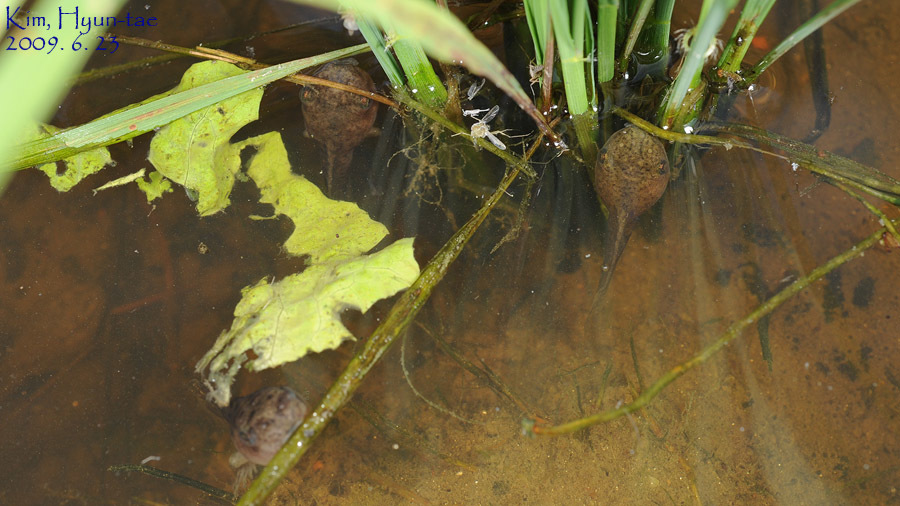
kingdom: Animalia
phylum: Chordata
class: Amphibia
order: Anura
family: Hylidae
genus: Dryophytes
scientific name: Dryophytes japonicus
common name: Japanese treefrog
